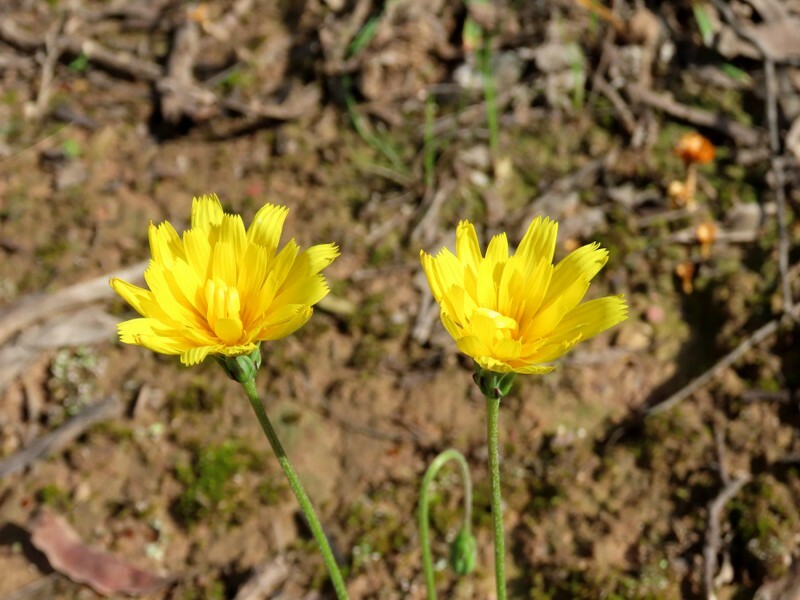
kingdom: Plantae
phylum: Tracheophyta
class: Magnoliopsida
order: Asterales
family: Asteraceae
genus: Microseris
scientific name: Microseris lanceolata
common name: Yam daisy
